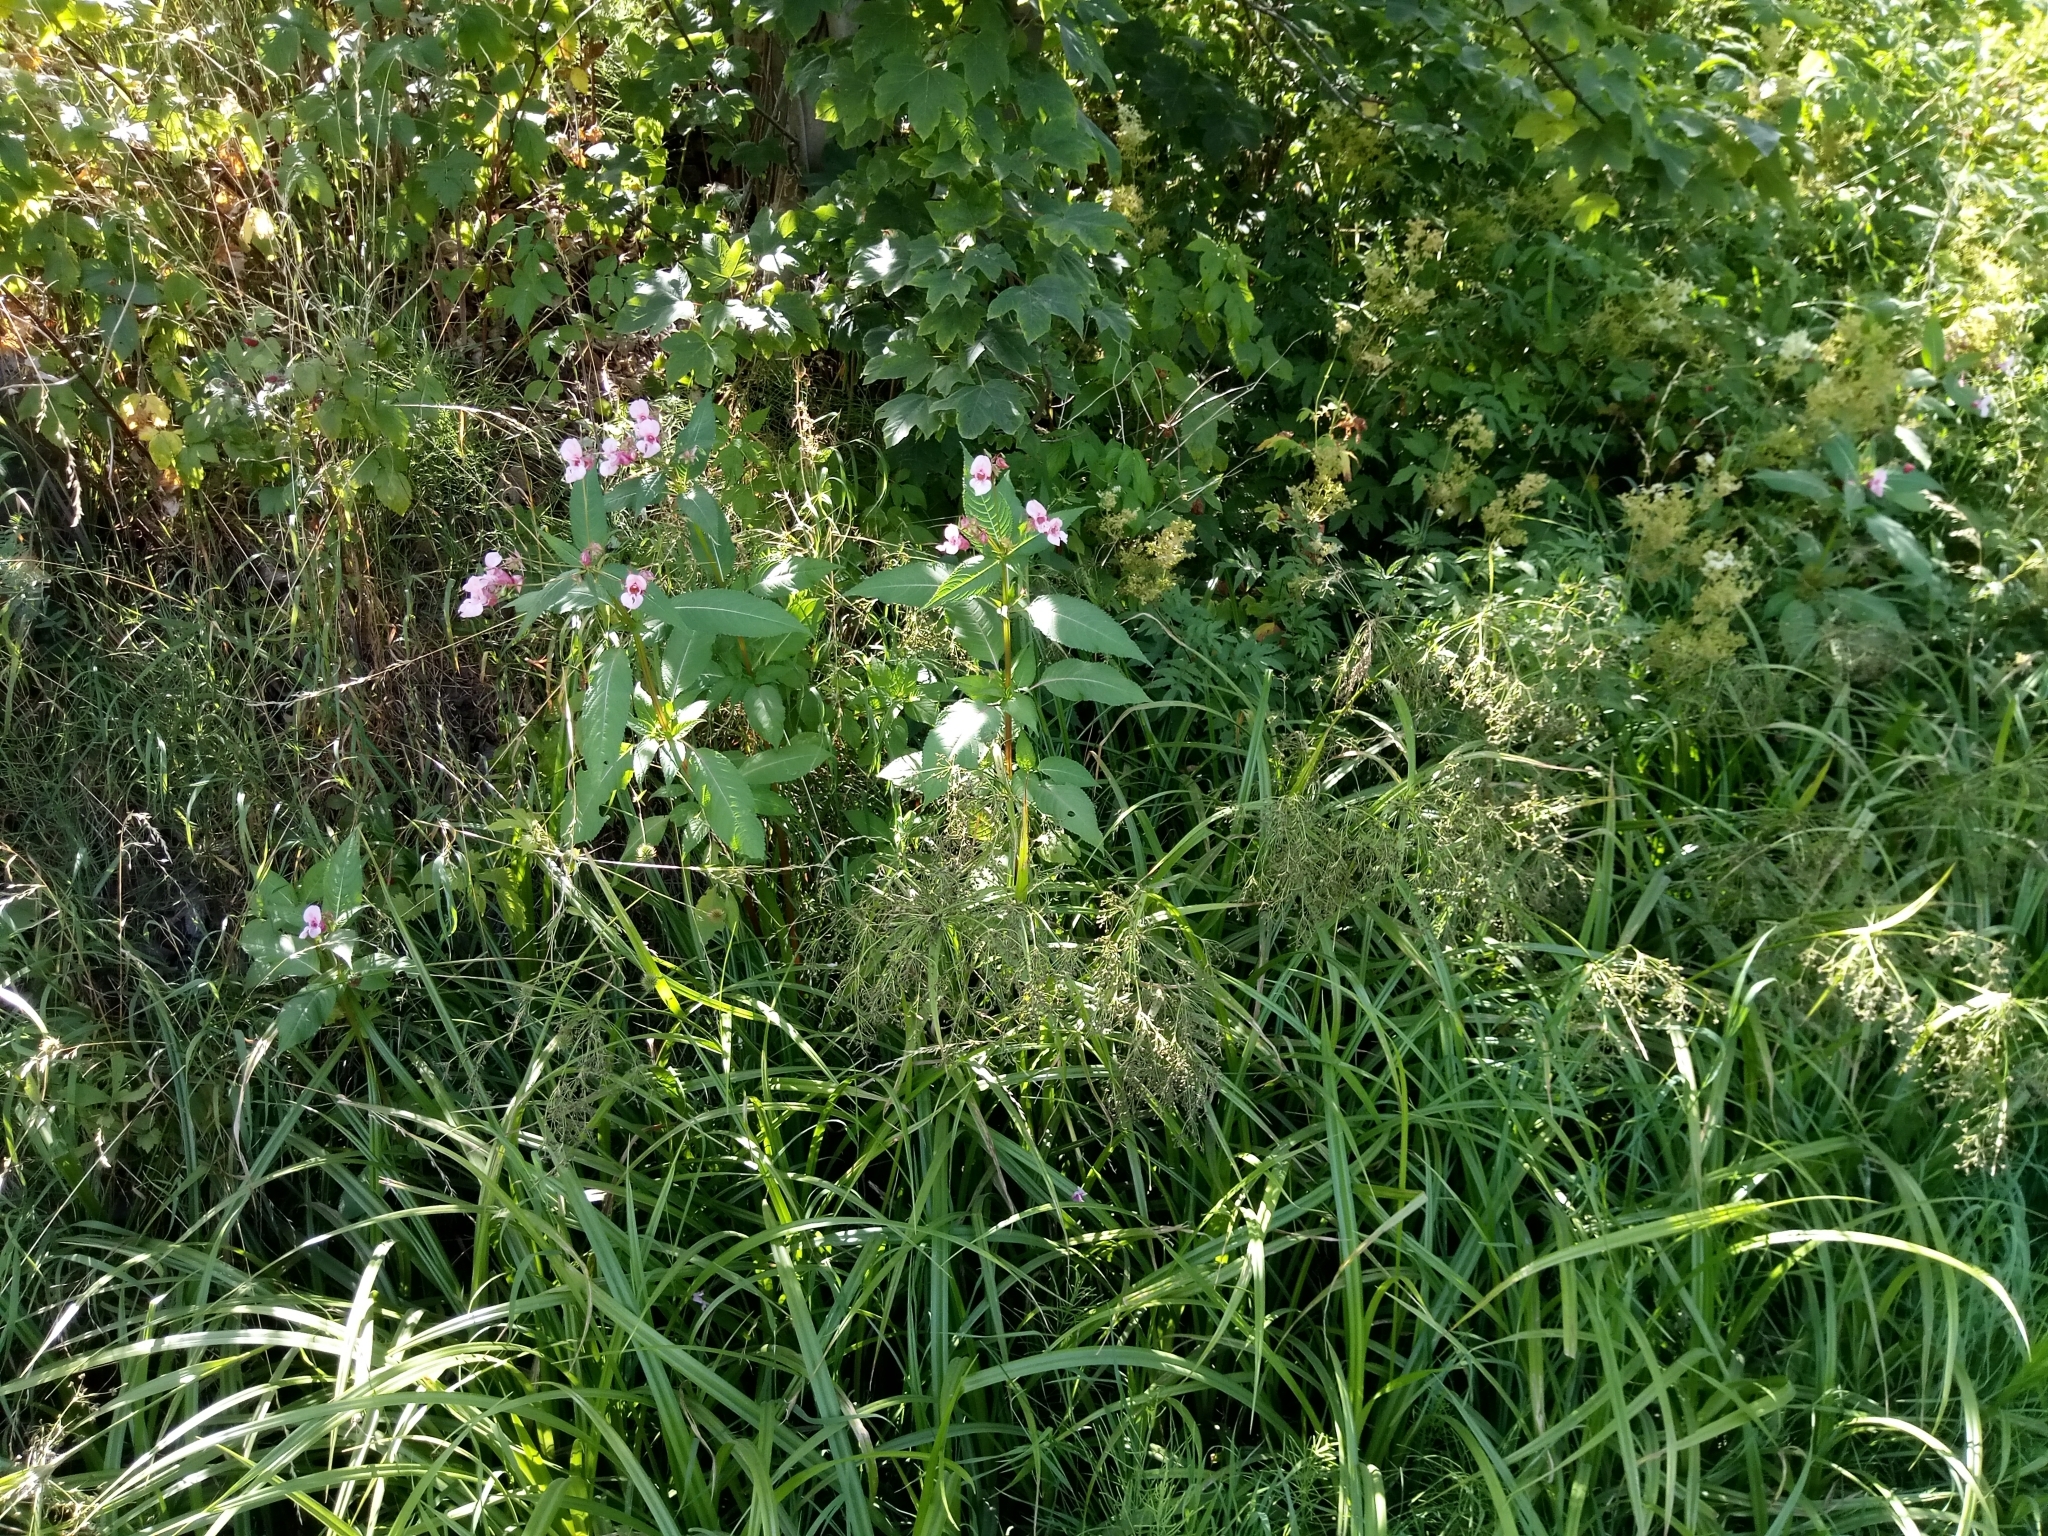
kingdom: Plantae
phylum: Tracheophyta
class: Magnoliopsida
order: Ericales
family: Balsaminaceae
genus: Impatiens
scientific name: Impatiens glandulifera
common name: Himalayan balsam
